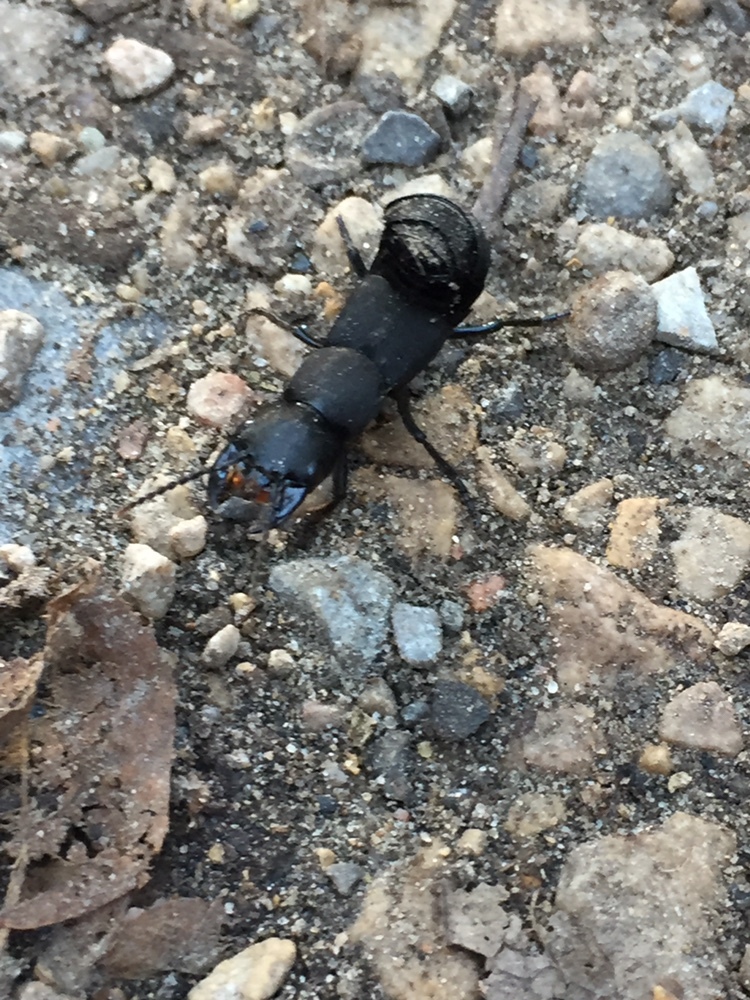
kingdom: Animalia
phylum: Arthropoda
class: Insecta
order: Coleoptera
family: Staphylinidae
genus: Ocypus
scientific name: Ocypus olens
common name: Devil's coach-horse
